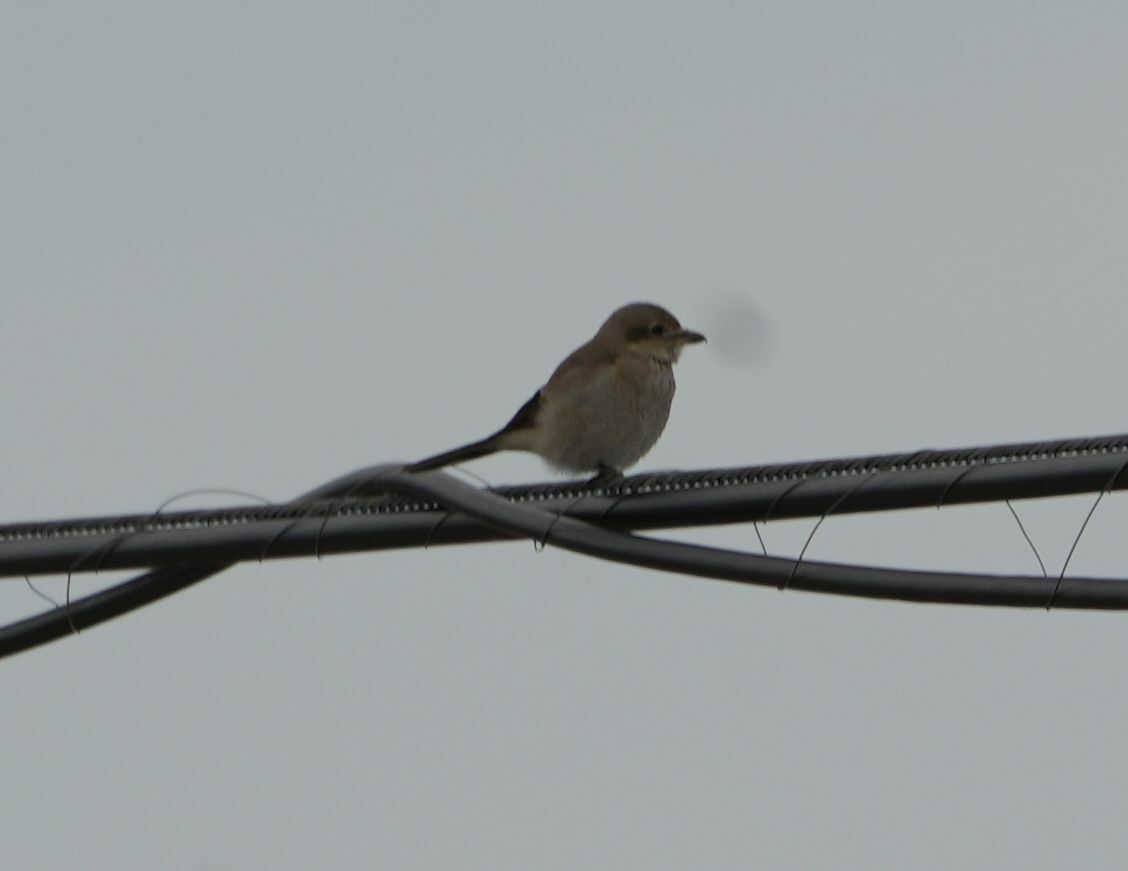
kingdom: Animalia
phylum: Chordata
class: Aves
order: Passeriformes
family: Laniidae
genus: Lanius
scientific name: Lanius borealis
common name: Northern shrike
